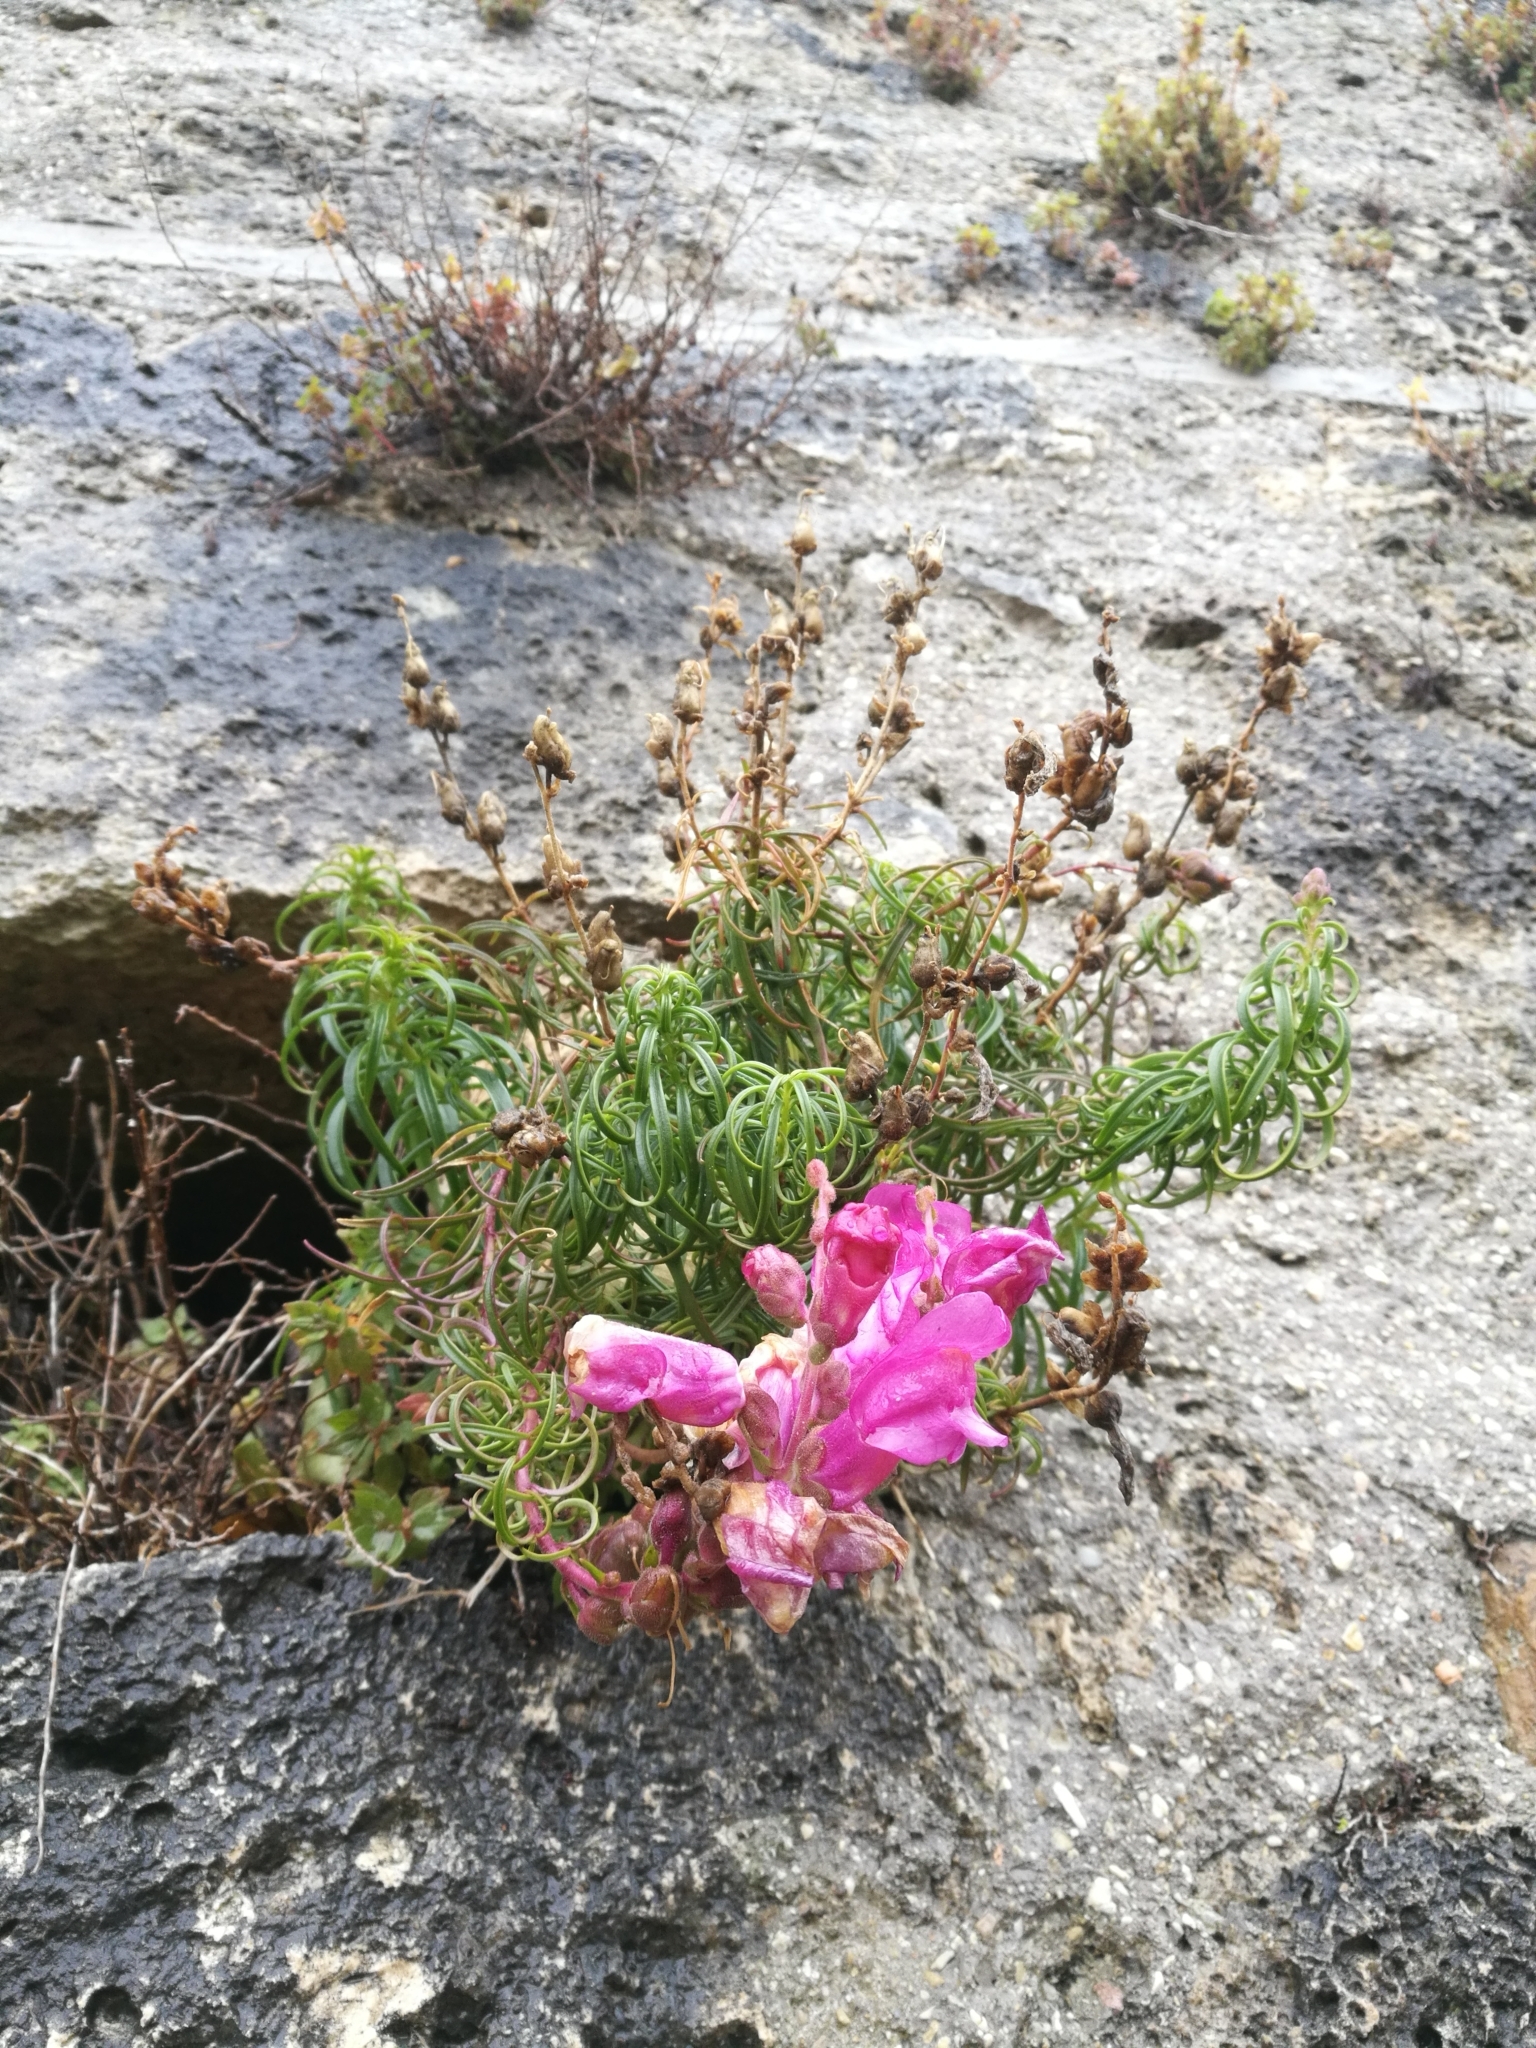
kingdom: Plantae
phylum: Tracheophyta
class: Magnoliopsida
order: Lamiales
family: Plantaginaceae
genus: Antirrhinum
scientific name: Antirrhinum tortuosum
